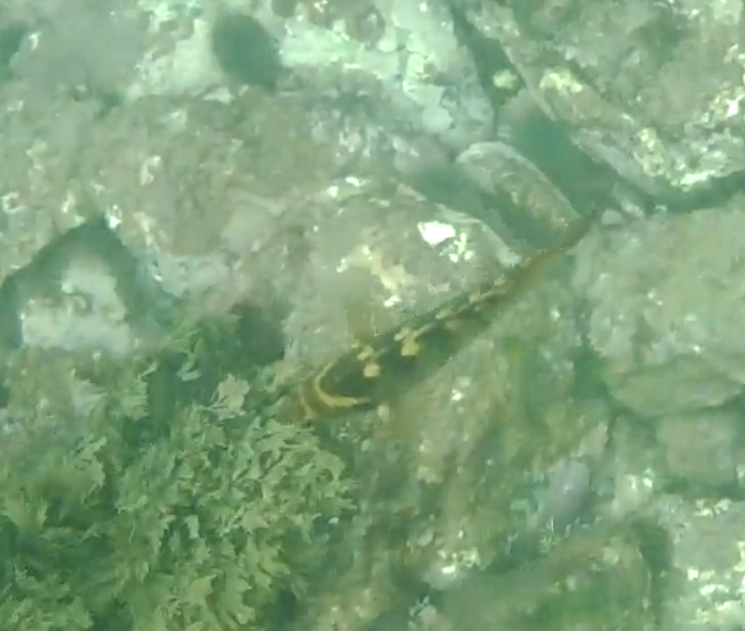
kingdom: Animalia
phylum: Chordata
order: Perciformes
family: Labridae
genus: Notolabrus
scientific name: Notolabrus fucicola
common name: Banded parrotfish
